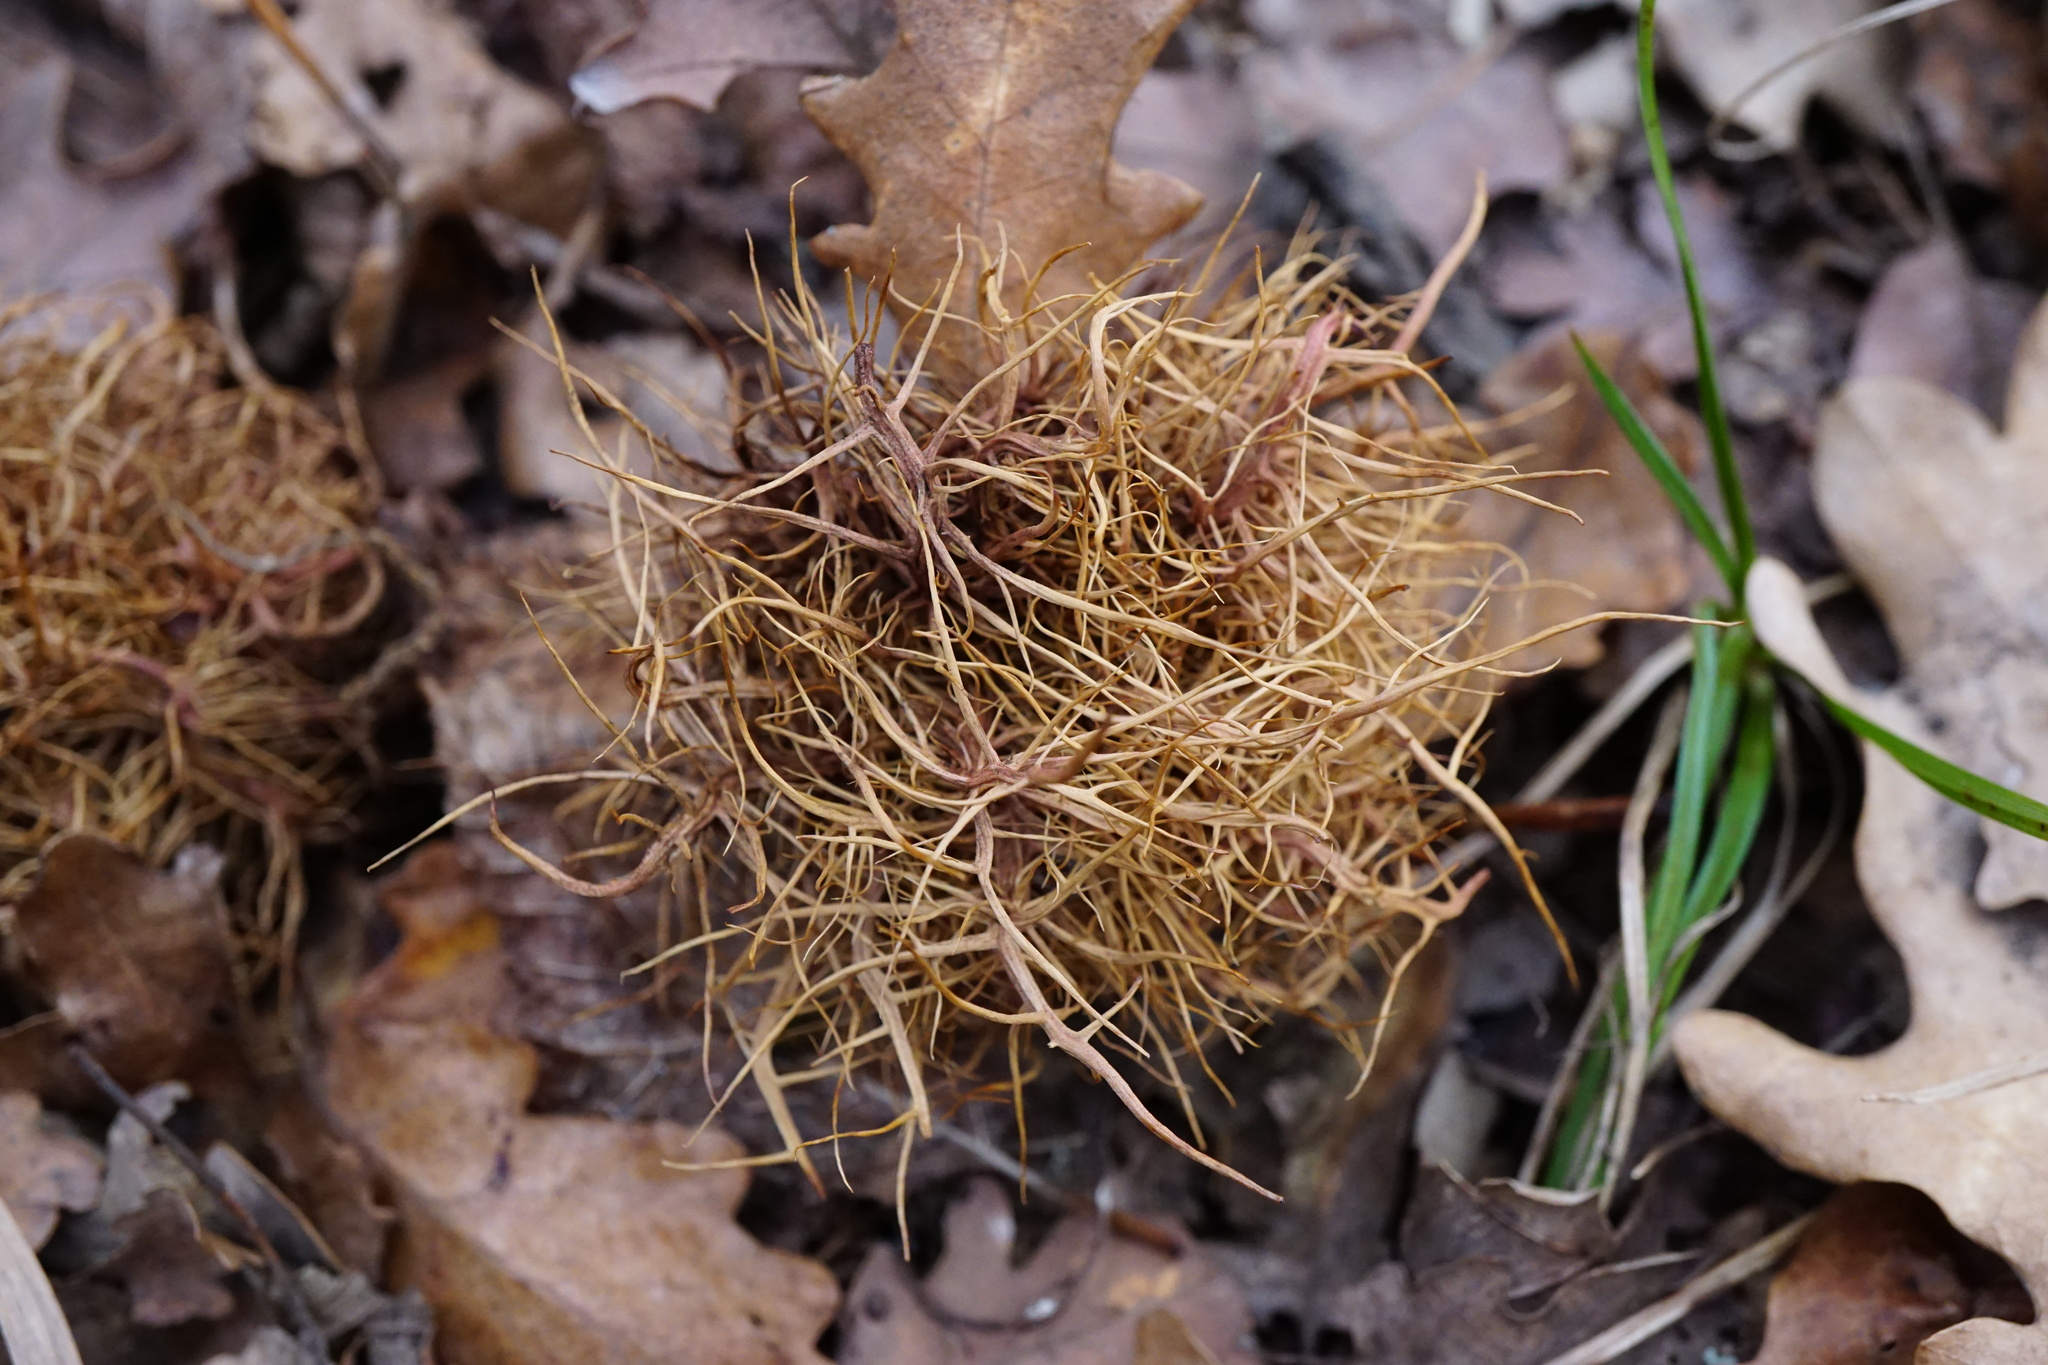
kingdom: Animalia
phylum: Arthropoda
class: Insecta
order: Hymenoptera
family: Cynipidae
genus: Andricus
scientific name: Andricus caputmedusae
